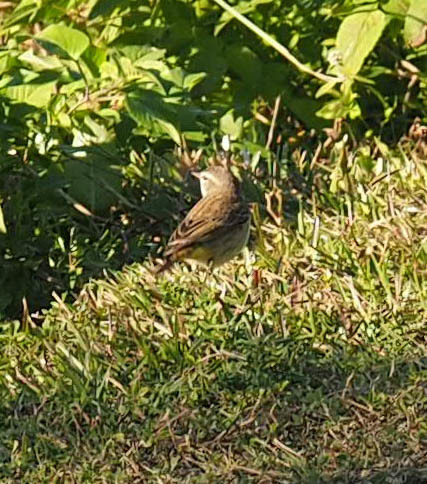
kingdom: Animalia
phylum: Chordata
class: Aves
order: Passeriformes
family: Parulidae
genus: Setophaga
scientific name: Setophaga palmarum
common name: Palm warbler
